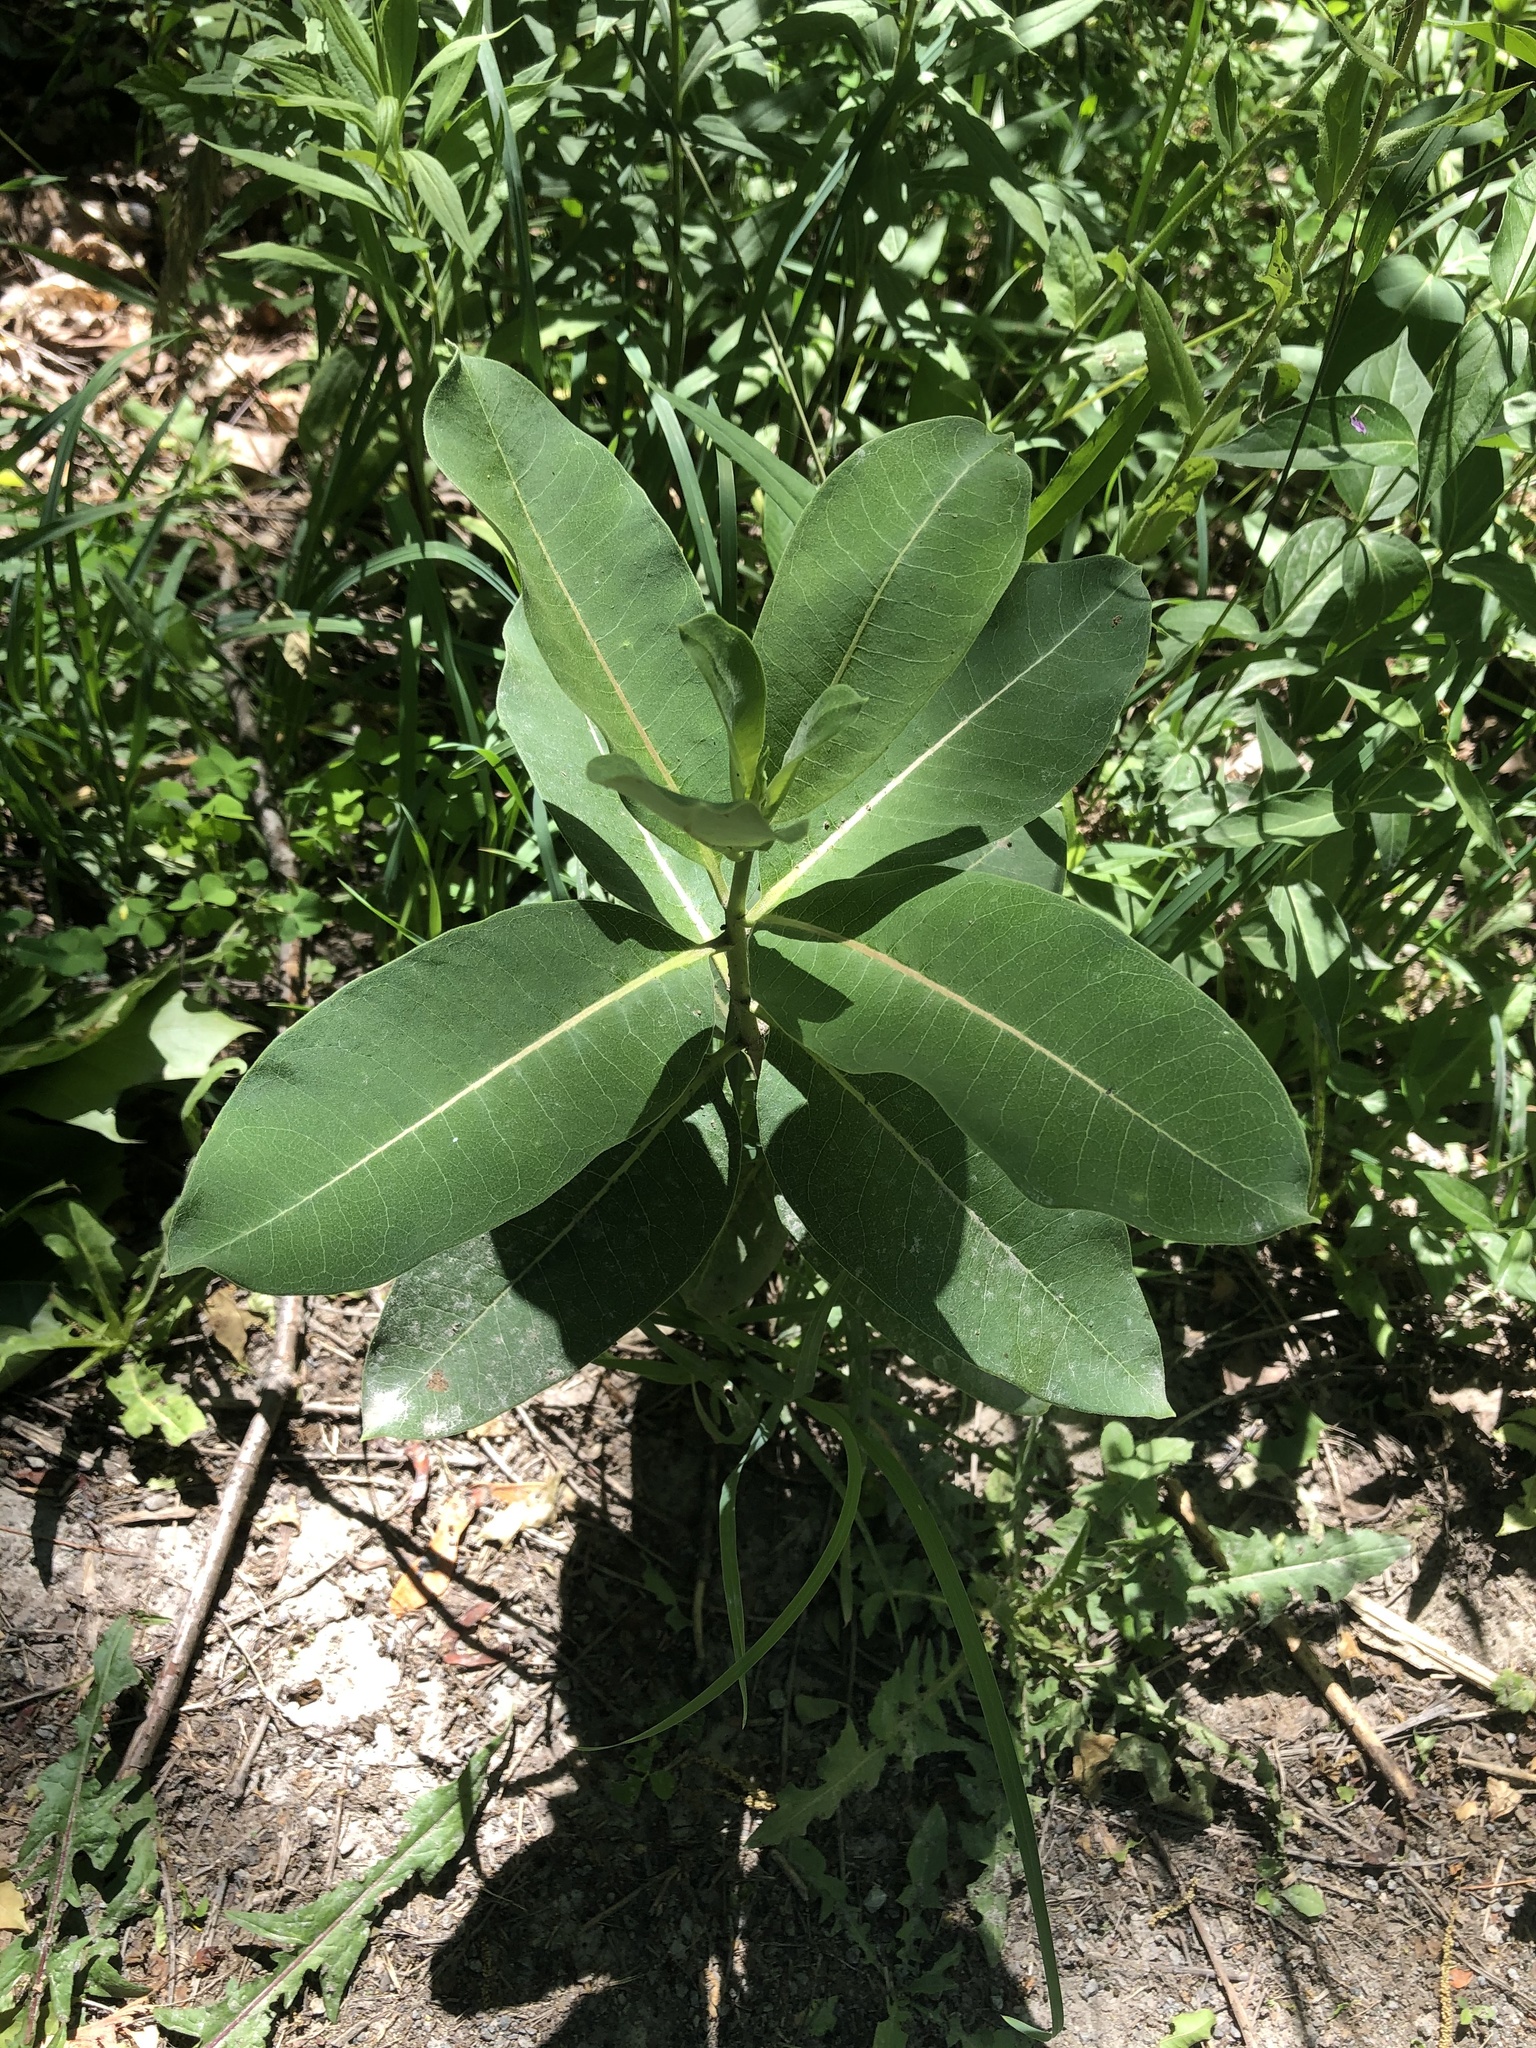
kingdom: Plantae
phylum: Tracheophyta
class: Magnoliopsida
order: Gentianales
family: Apocynaceae
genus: Asclepias
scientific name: Asclepias syriaca
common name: Common milkweed
